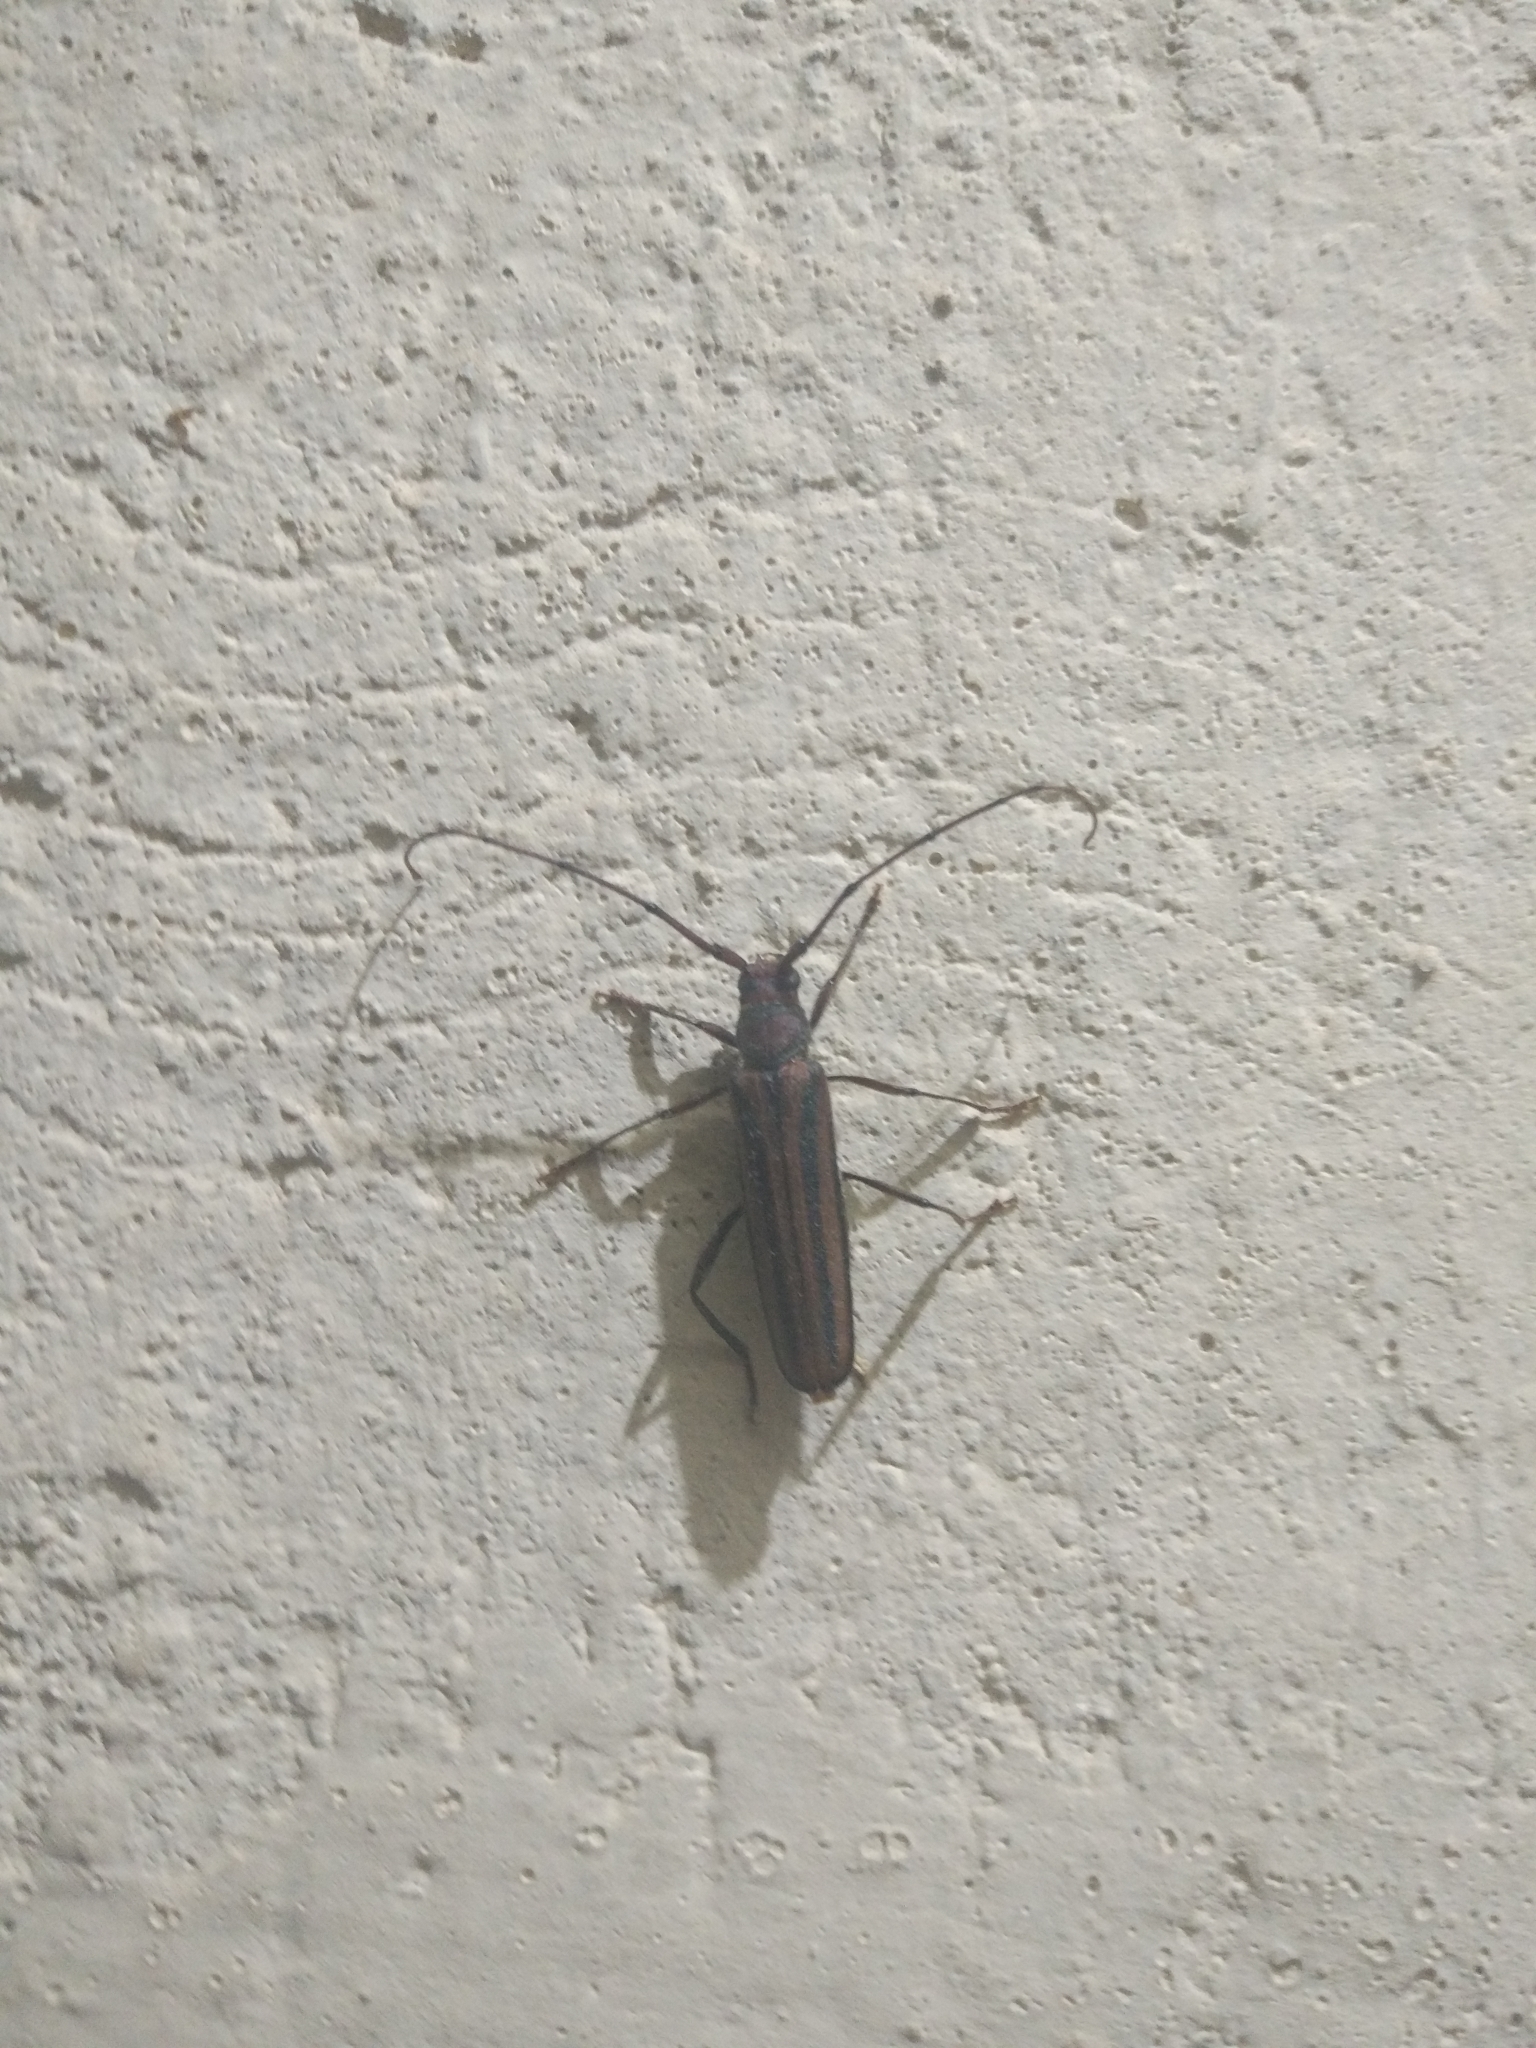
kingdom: Animalia
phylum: Arthropoda
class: Insecta
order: Coleoptera
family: Cerambycidae
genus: Xystrocera
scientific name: Xystrocera globosa
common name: Peach-tree longhorn
